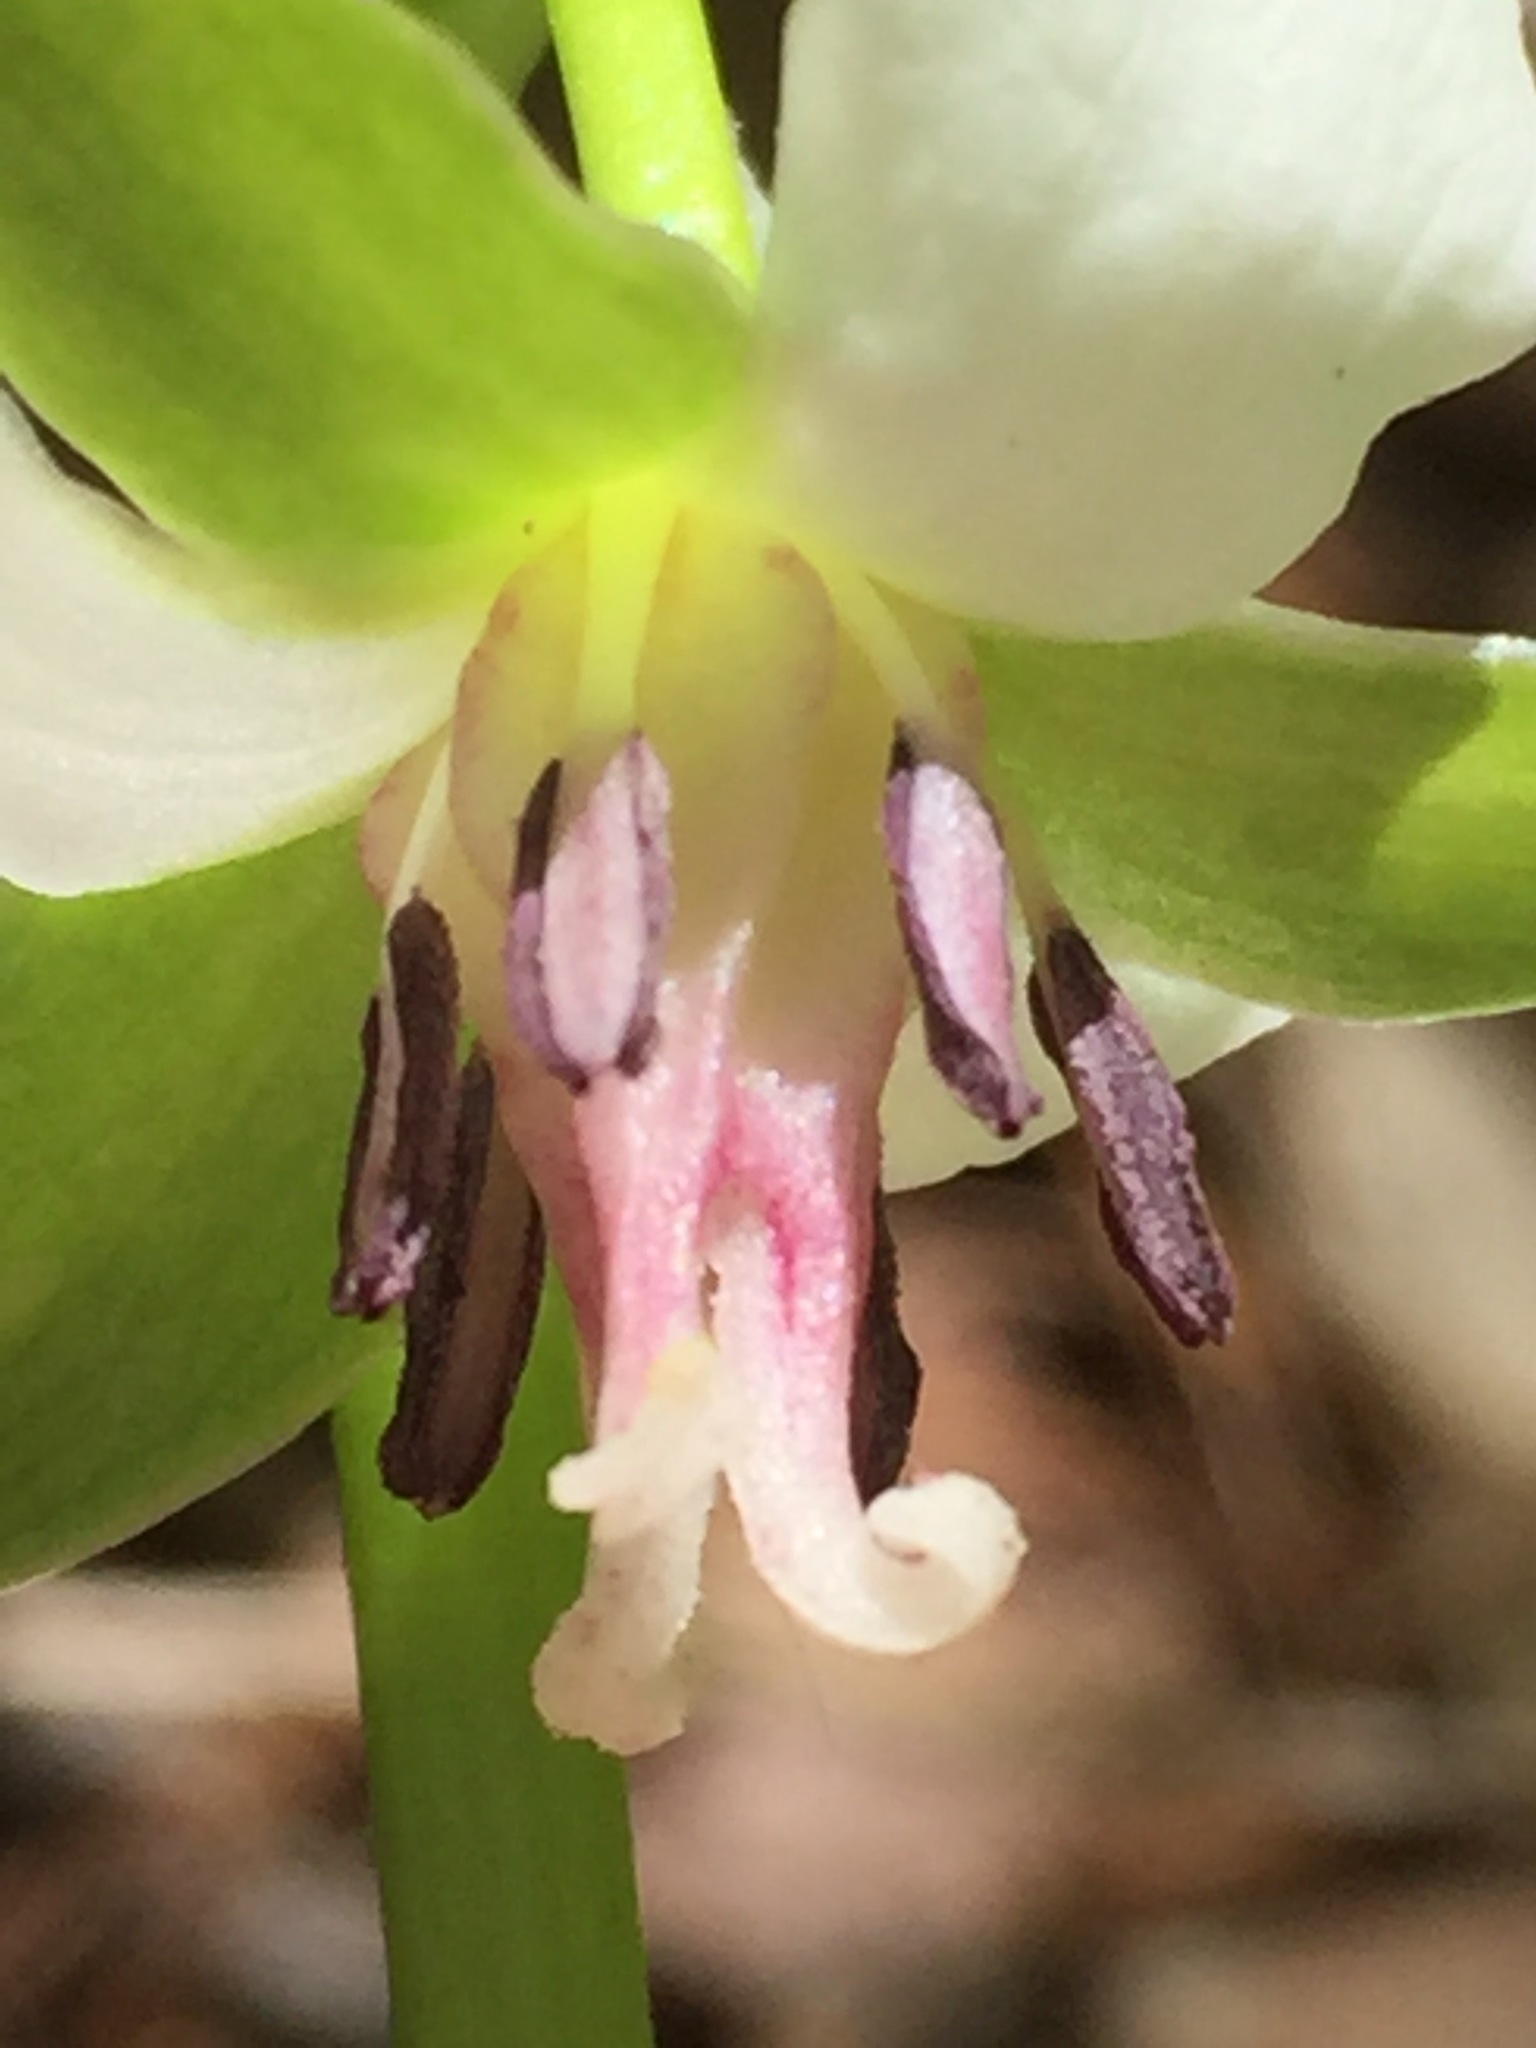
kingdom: Plantae
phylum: Tracheophyta
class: Liliopsida
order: Liliales
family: Melanthiaceae
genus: Trillium
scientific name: Trillium cernuum
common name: Nodding trillium
